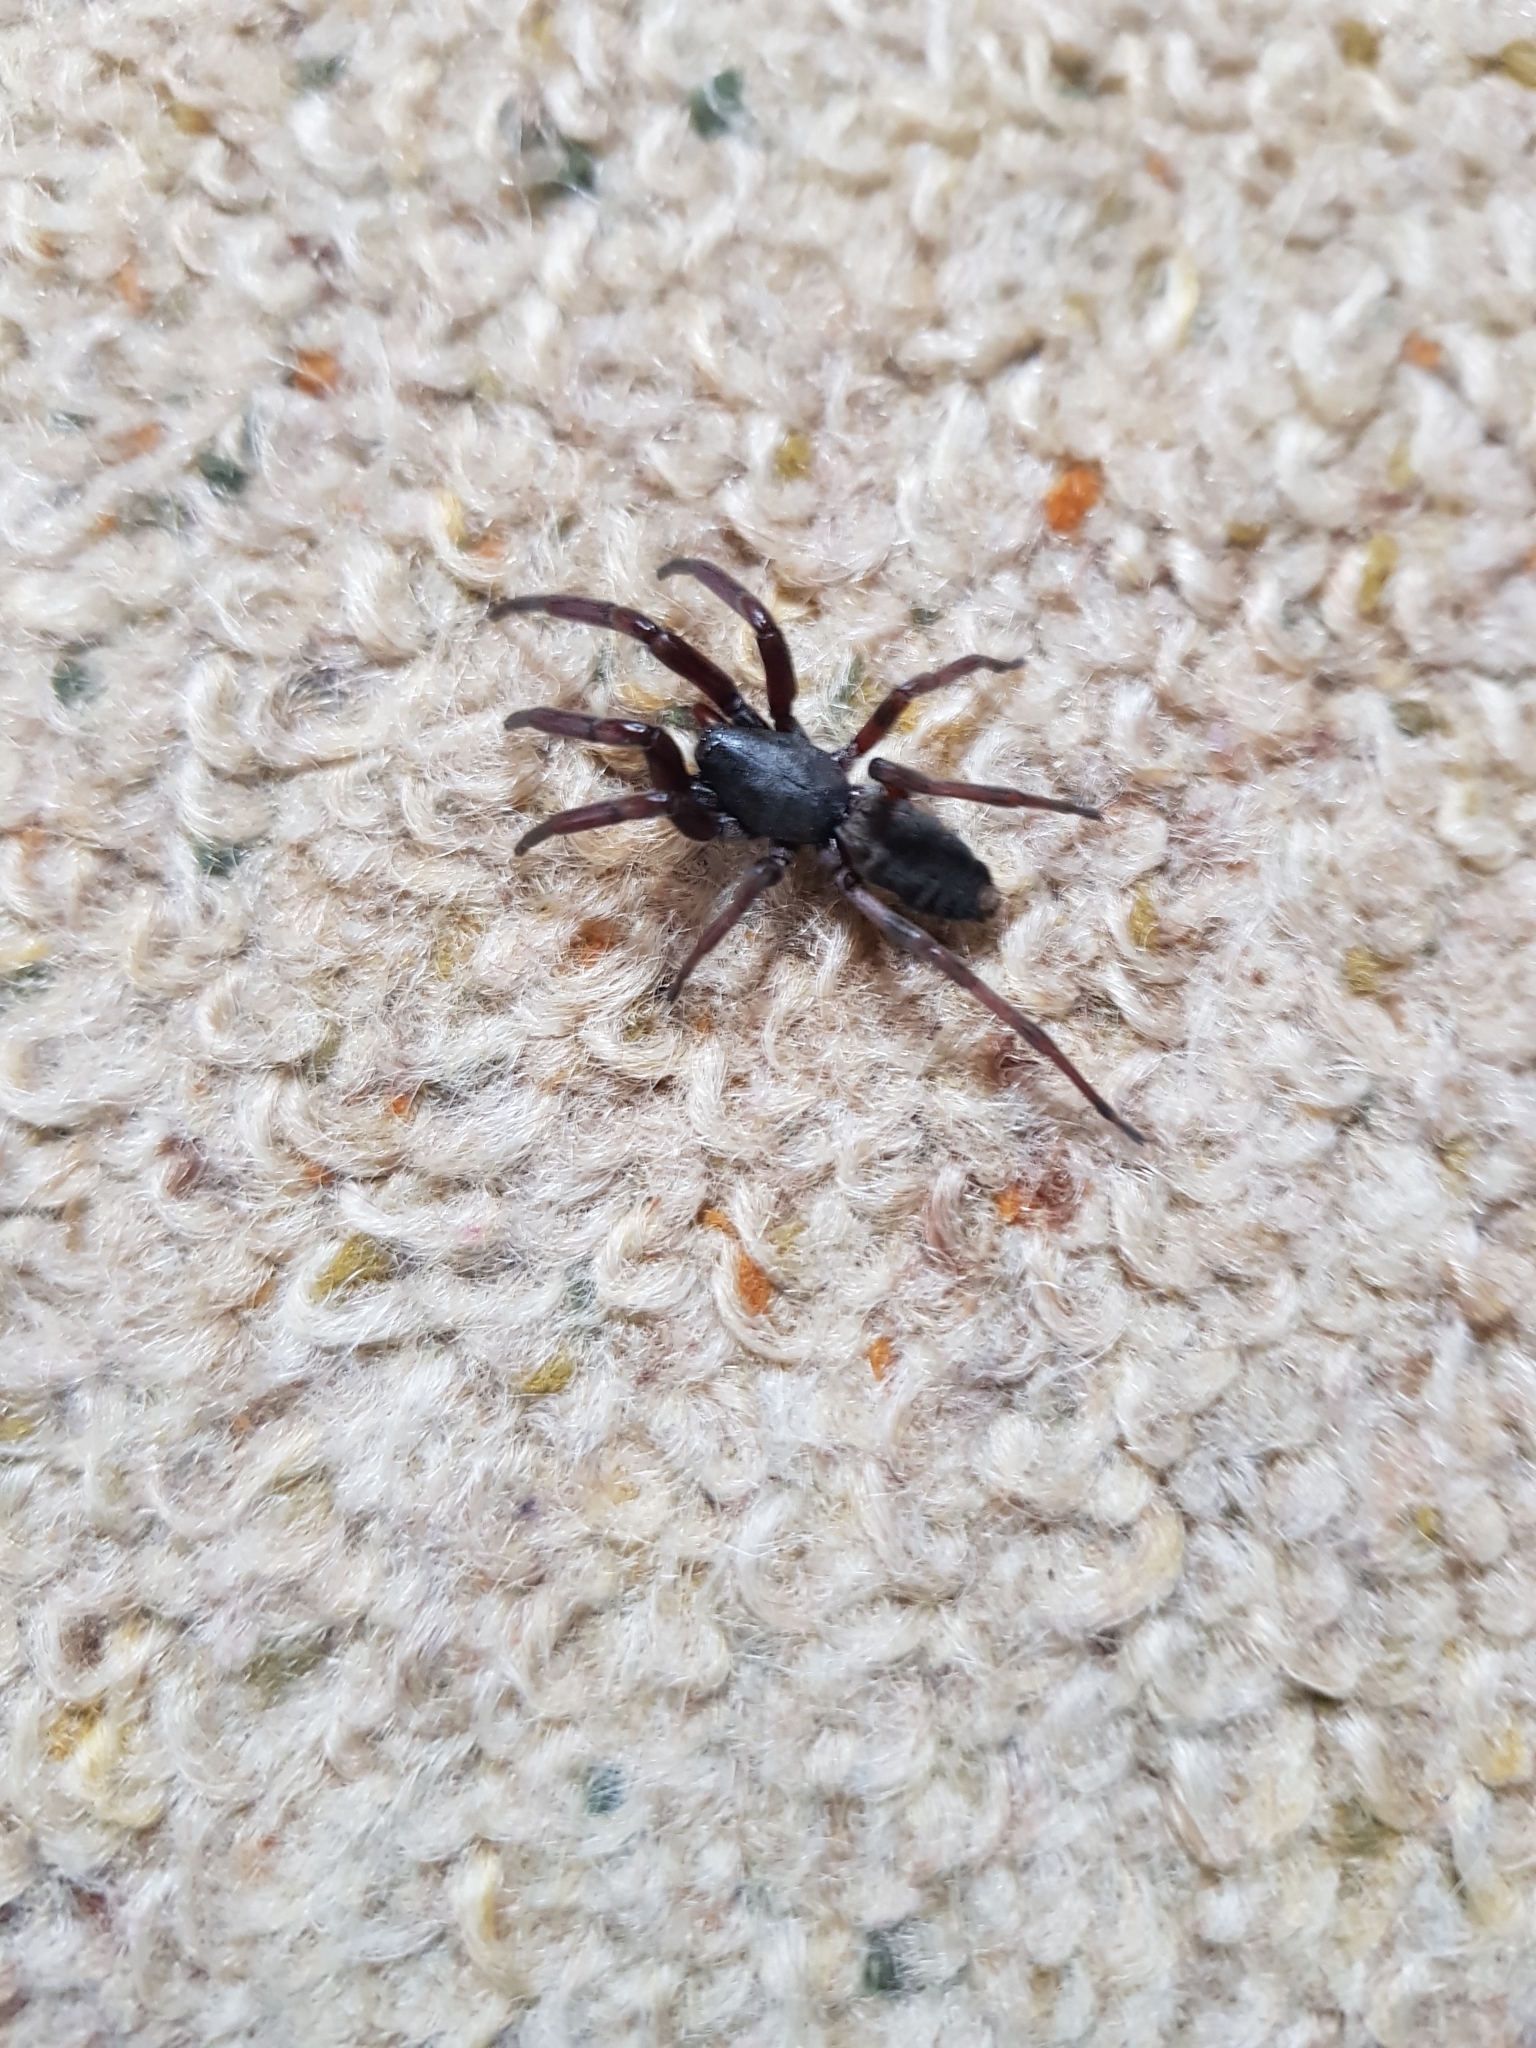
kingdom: Animalia
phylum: Arthropoda
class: Arachnida
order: Araneae
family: Lamponidae
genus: Lampona
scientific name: Lampona cylindrata
